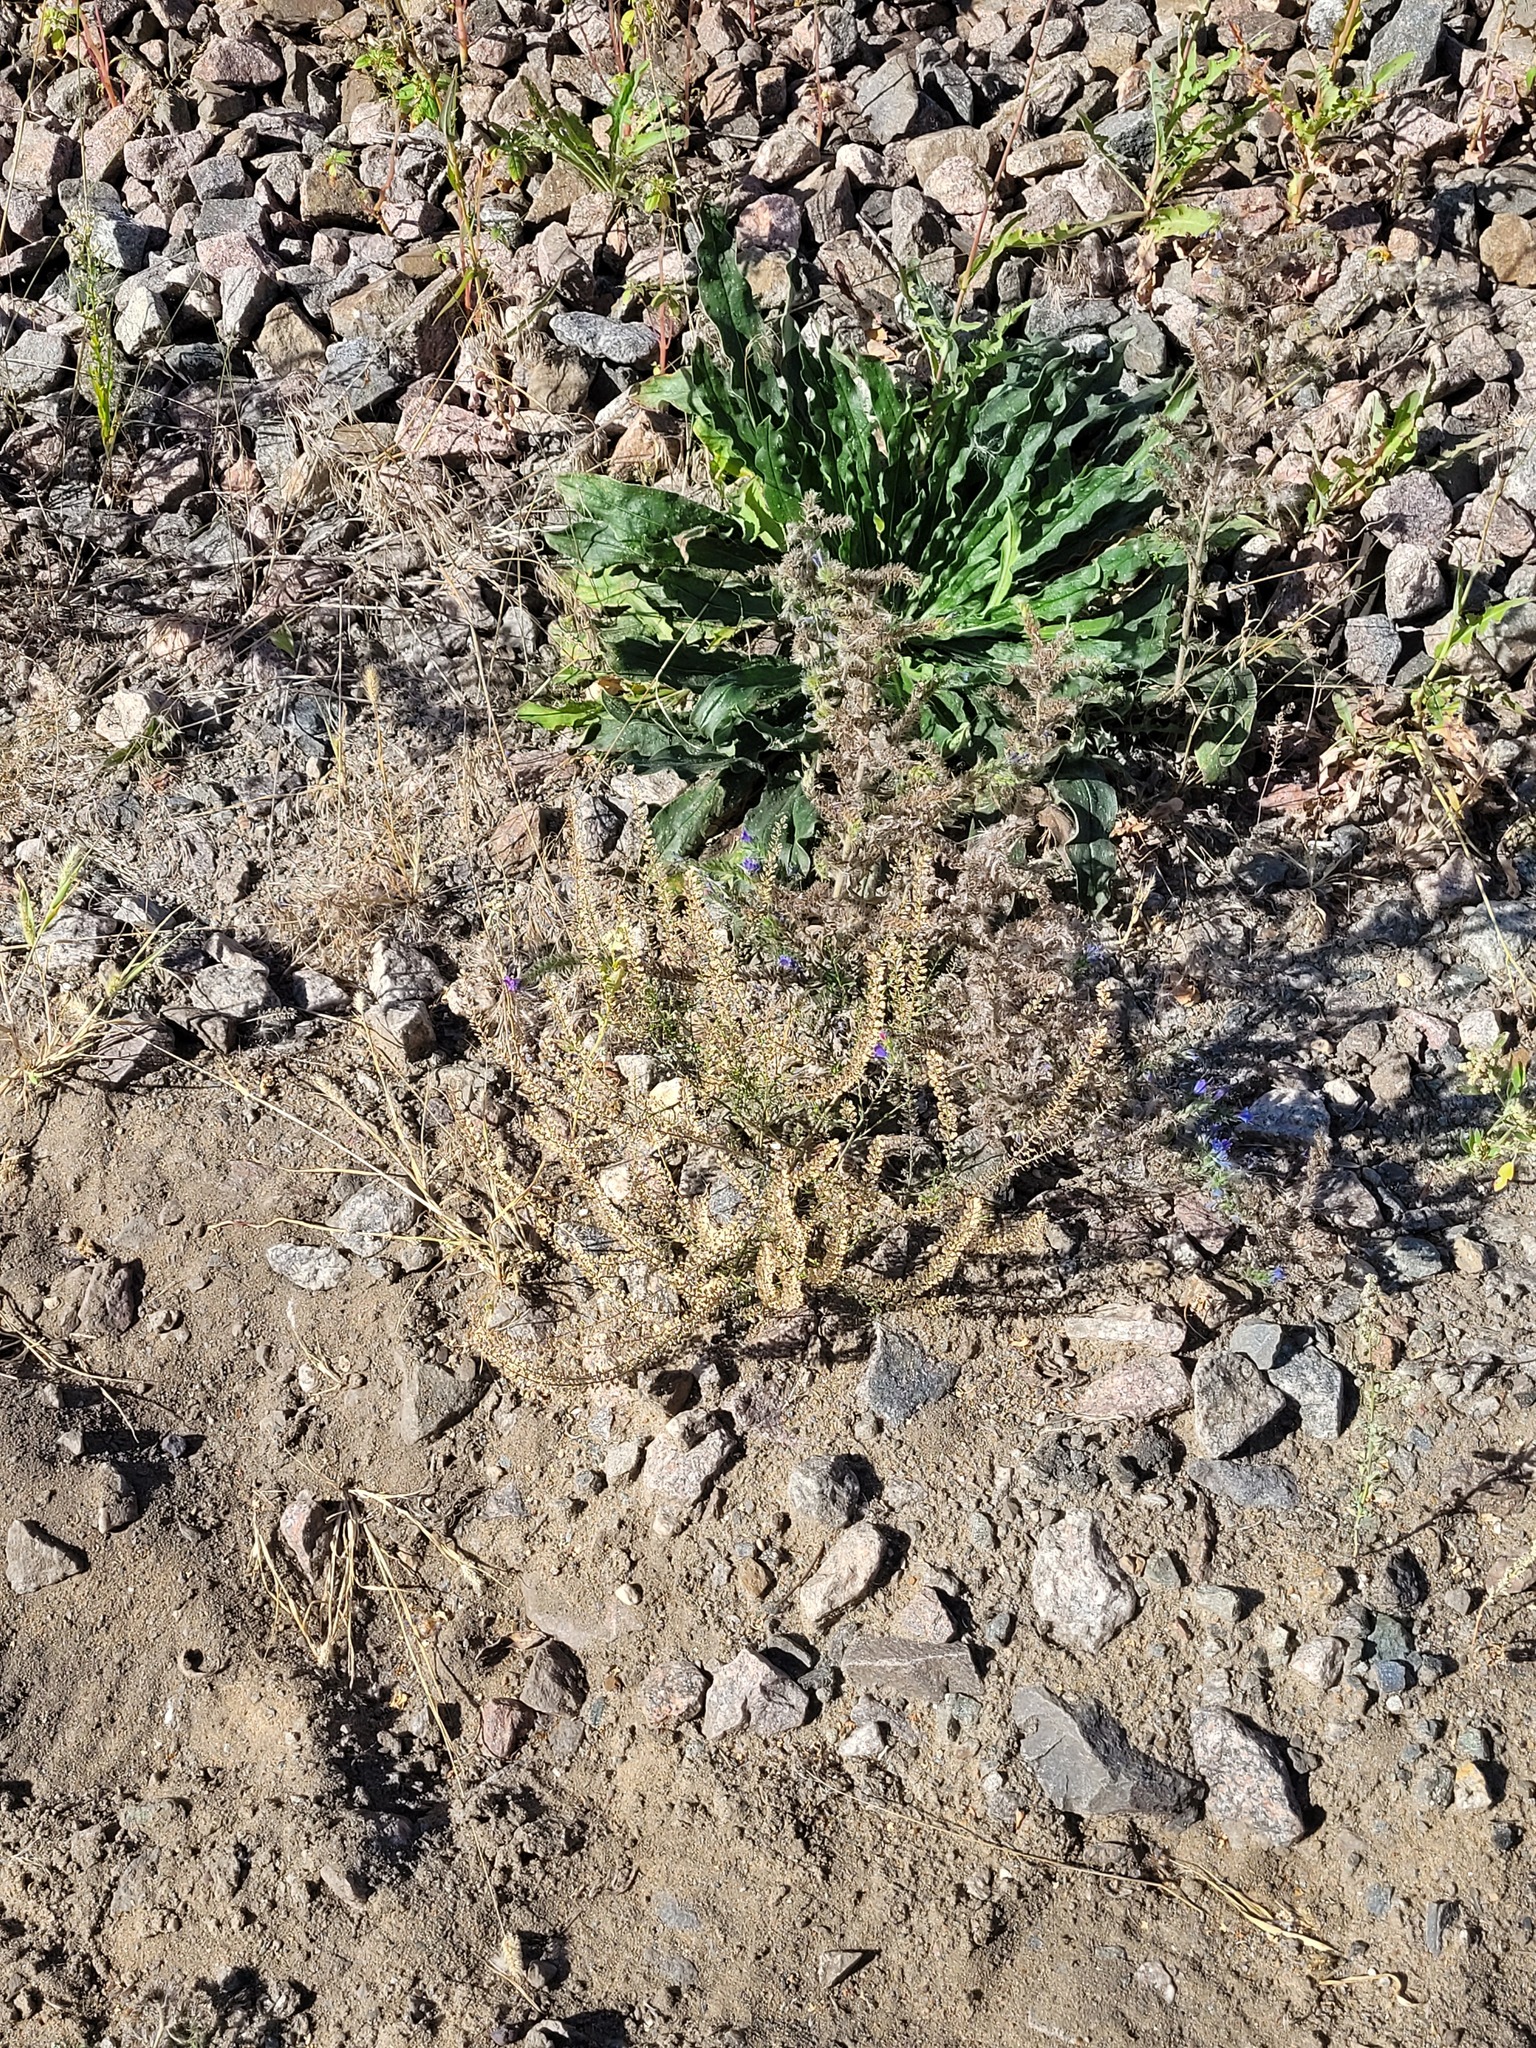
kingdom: Plantae
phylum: Tracheophyta
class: Magnoliopsida
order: Brassicales
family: Brassicaceae
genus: Lepidium
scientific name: Lepidium densiflorum
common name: Miner's pepperwort
